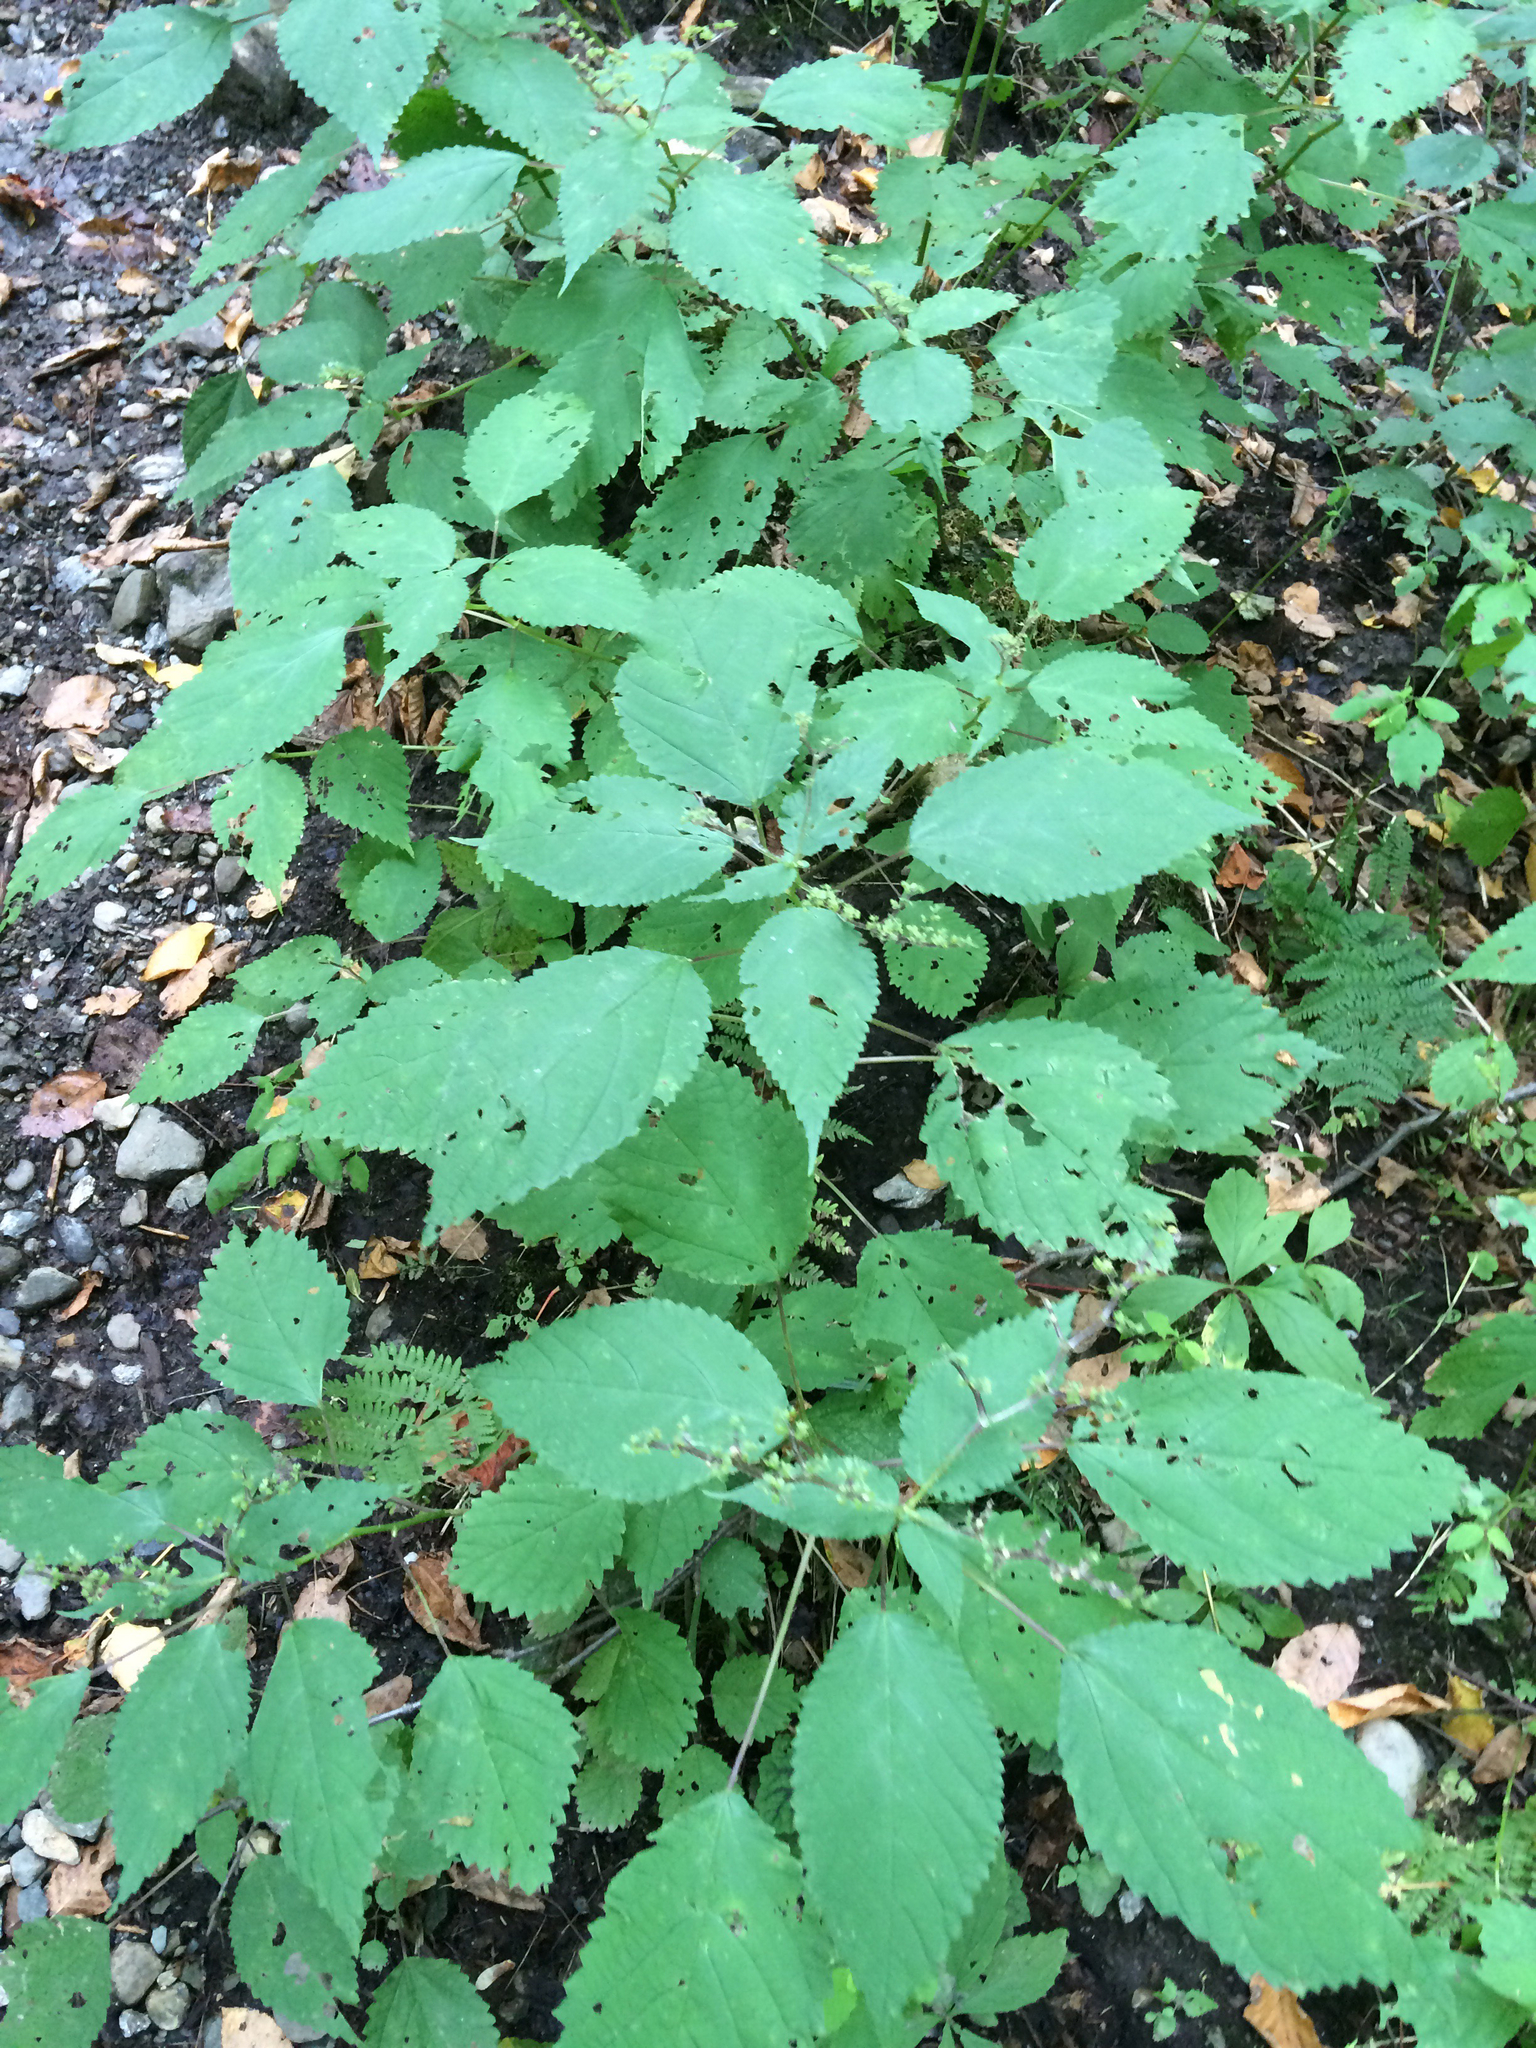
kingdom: Plantae
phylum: Tracheophyta
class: Magnoliopsida
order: Rosales
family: Urticaceae
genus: Laportea
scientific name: Laportea canadensis
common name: Canada nettle
